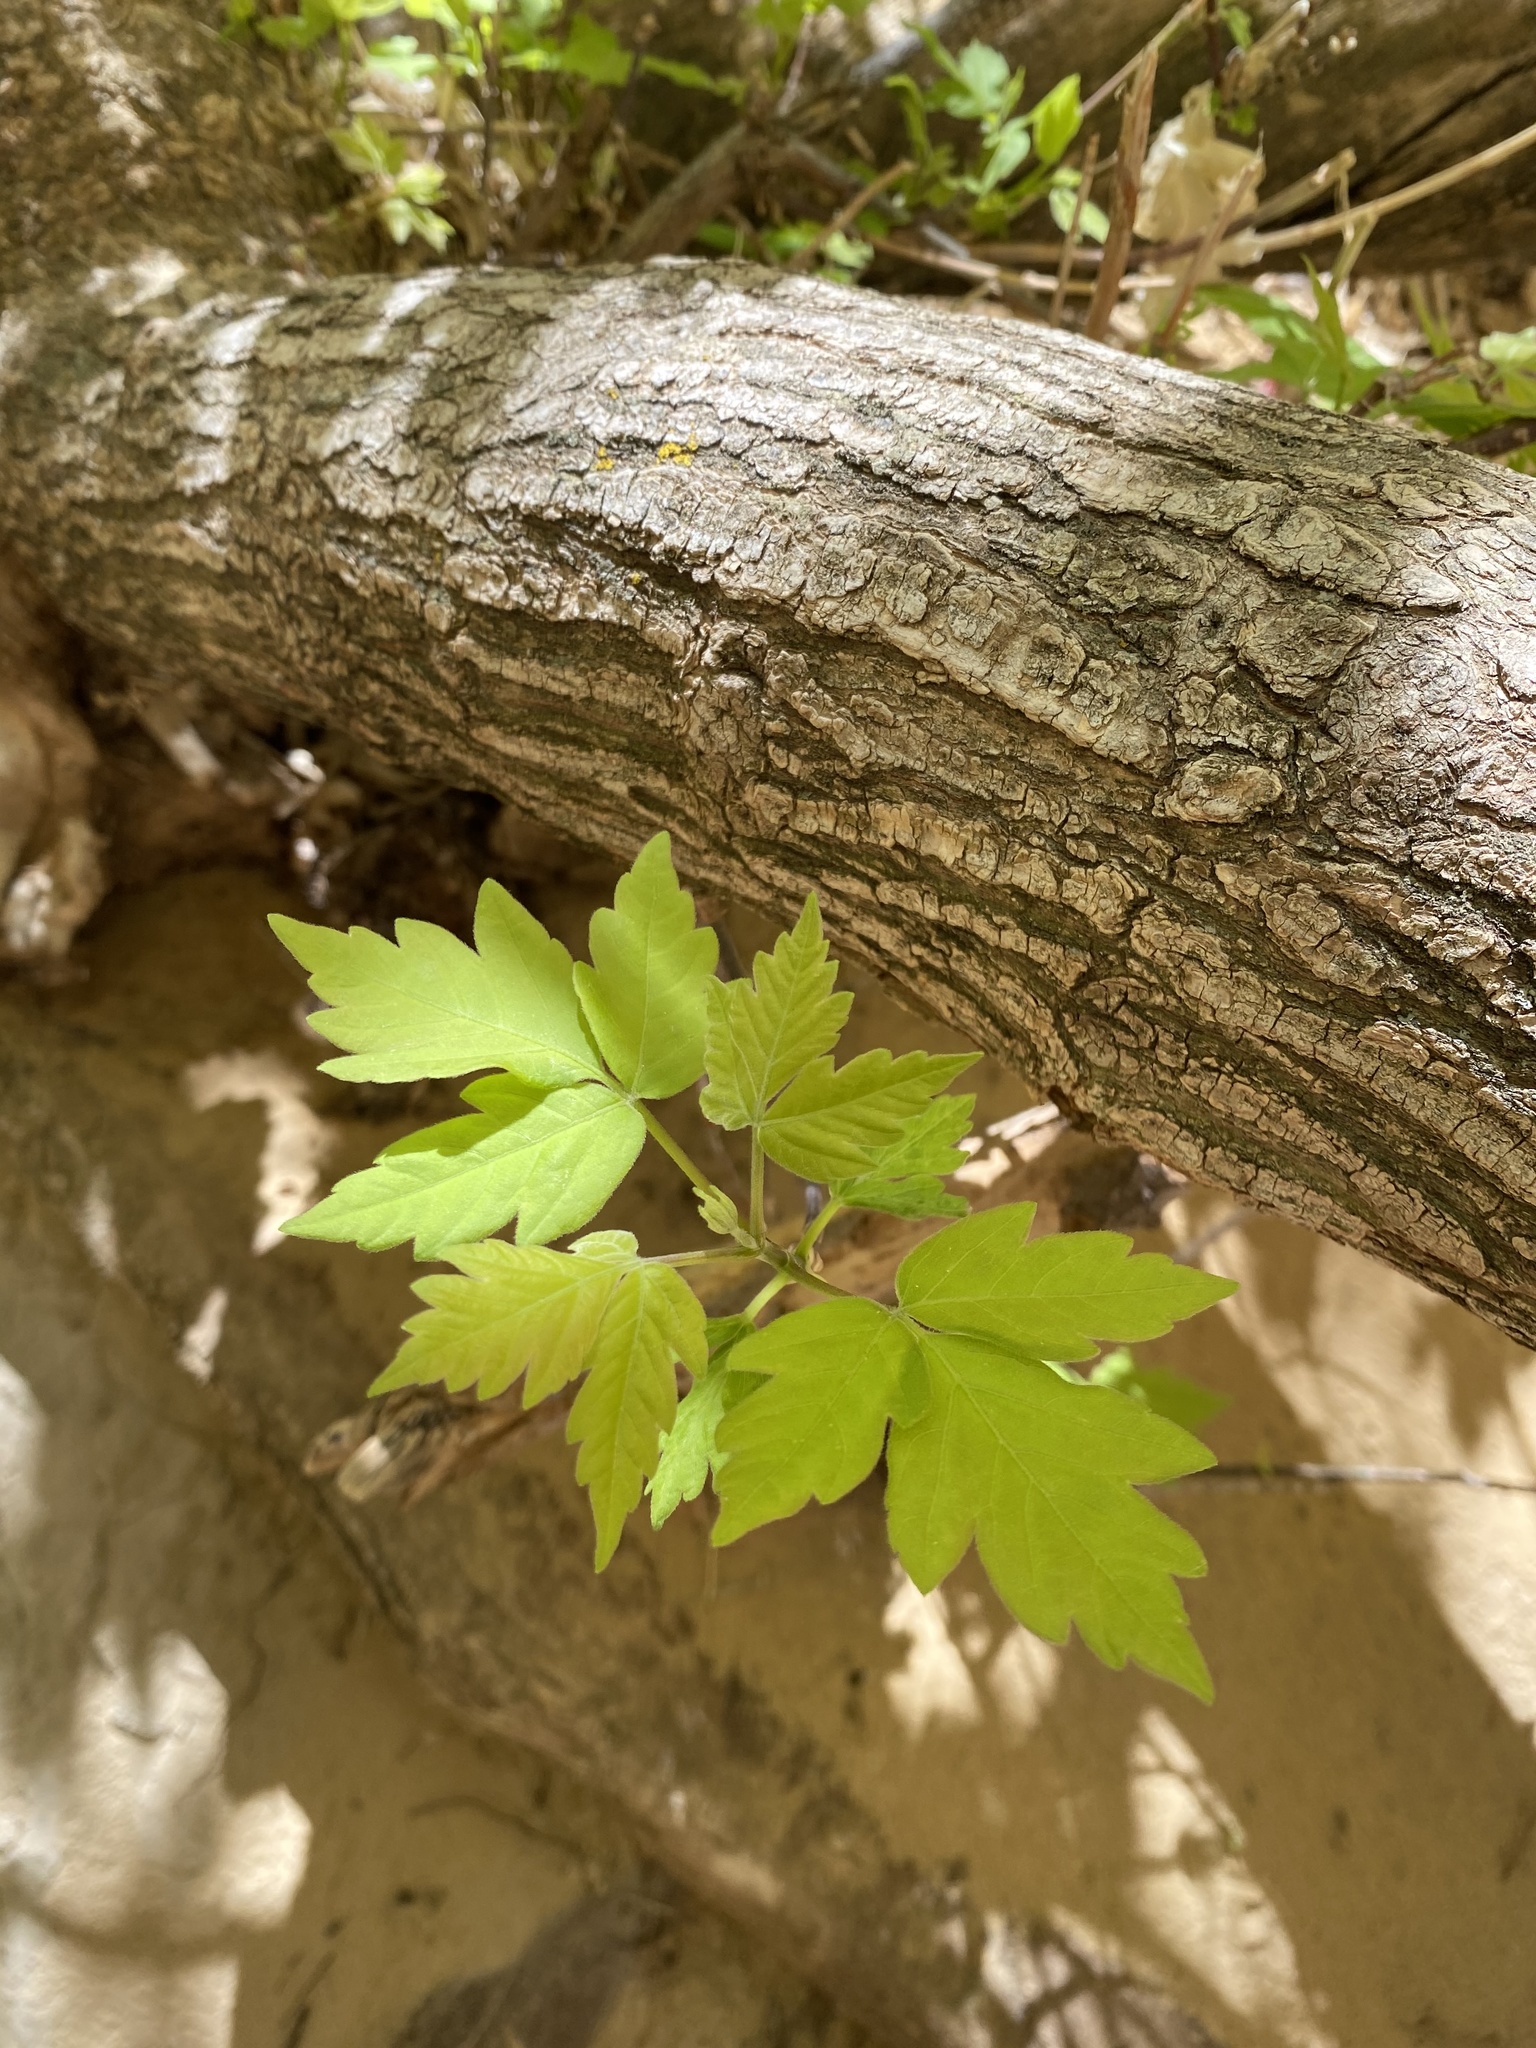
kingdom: Plantae
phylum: Tracheophyta
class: Magnoliopsida
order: Sapindales
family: Sapindaceae
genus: Acer
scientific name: Acer negundo
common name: Ashleaf maple
